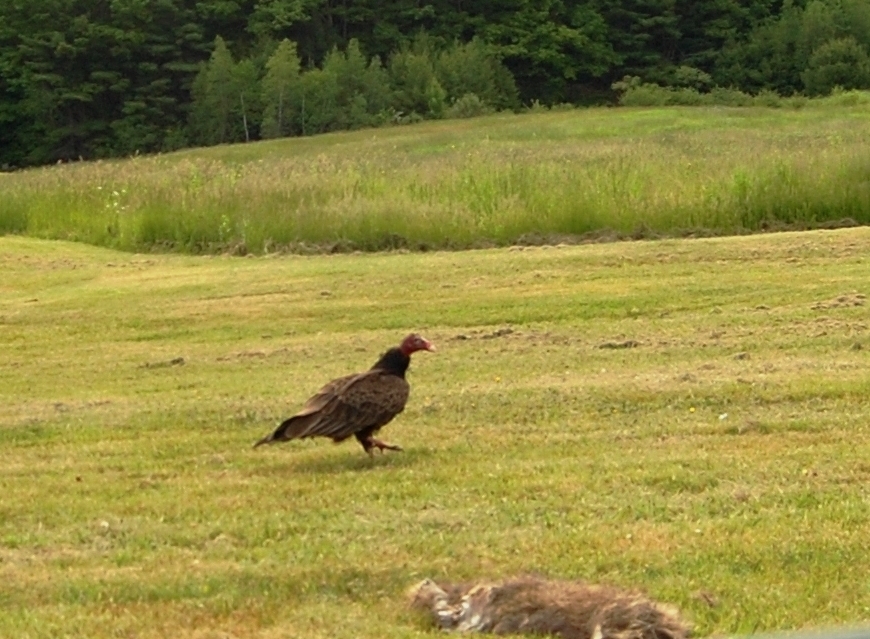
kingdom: Animalia
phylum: Chordata
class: Aves
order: Accipitriformes
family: Cathartidae
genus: Cathartes
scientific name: Cathartes aura
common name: Turkey vulture
